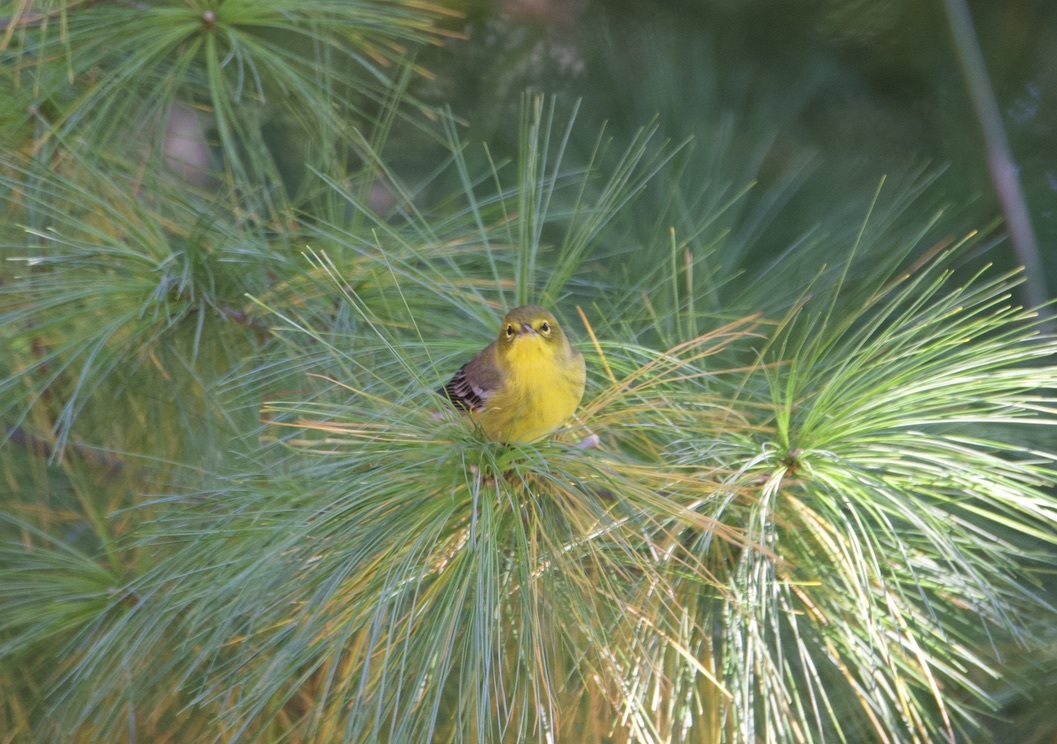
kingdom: Animalia
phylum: Chordata
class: Aves
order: Passeriformes
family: Parulidae
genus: Setophaga
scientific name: Setophaga pinus
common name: Pine warbler
